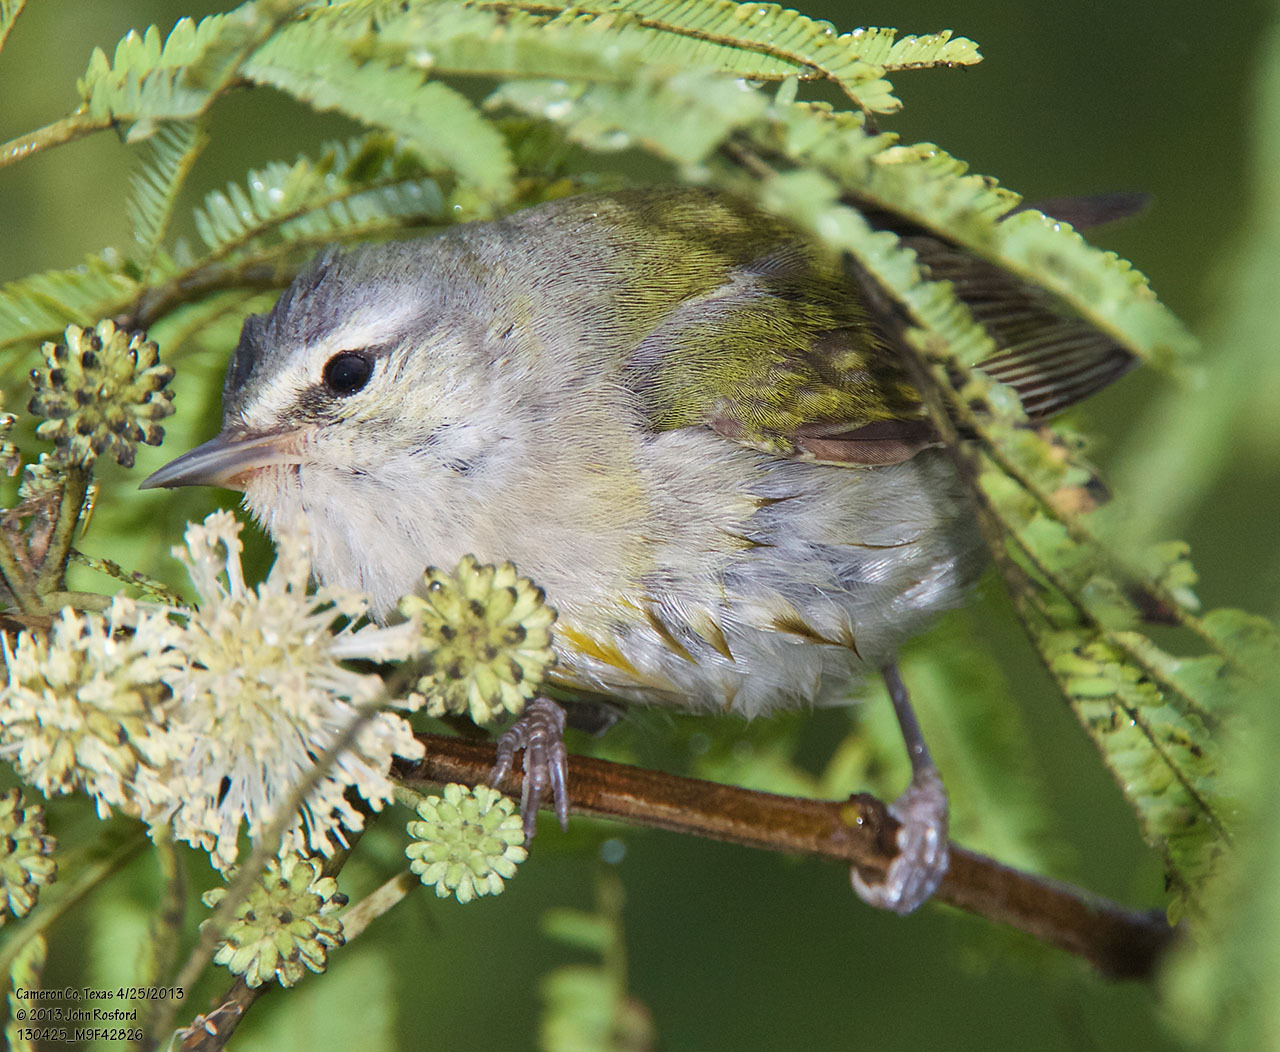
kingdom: Animalia
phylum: Chordata
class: Aves
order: Passeriformes
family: Parulidae
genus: Leiothlypis
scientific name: Leiothlypis peregrina
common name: Tennessee warbler
